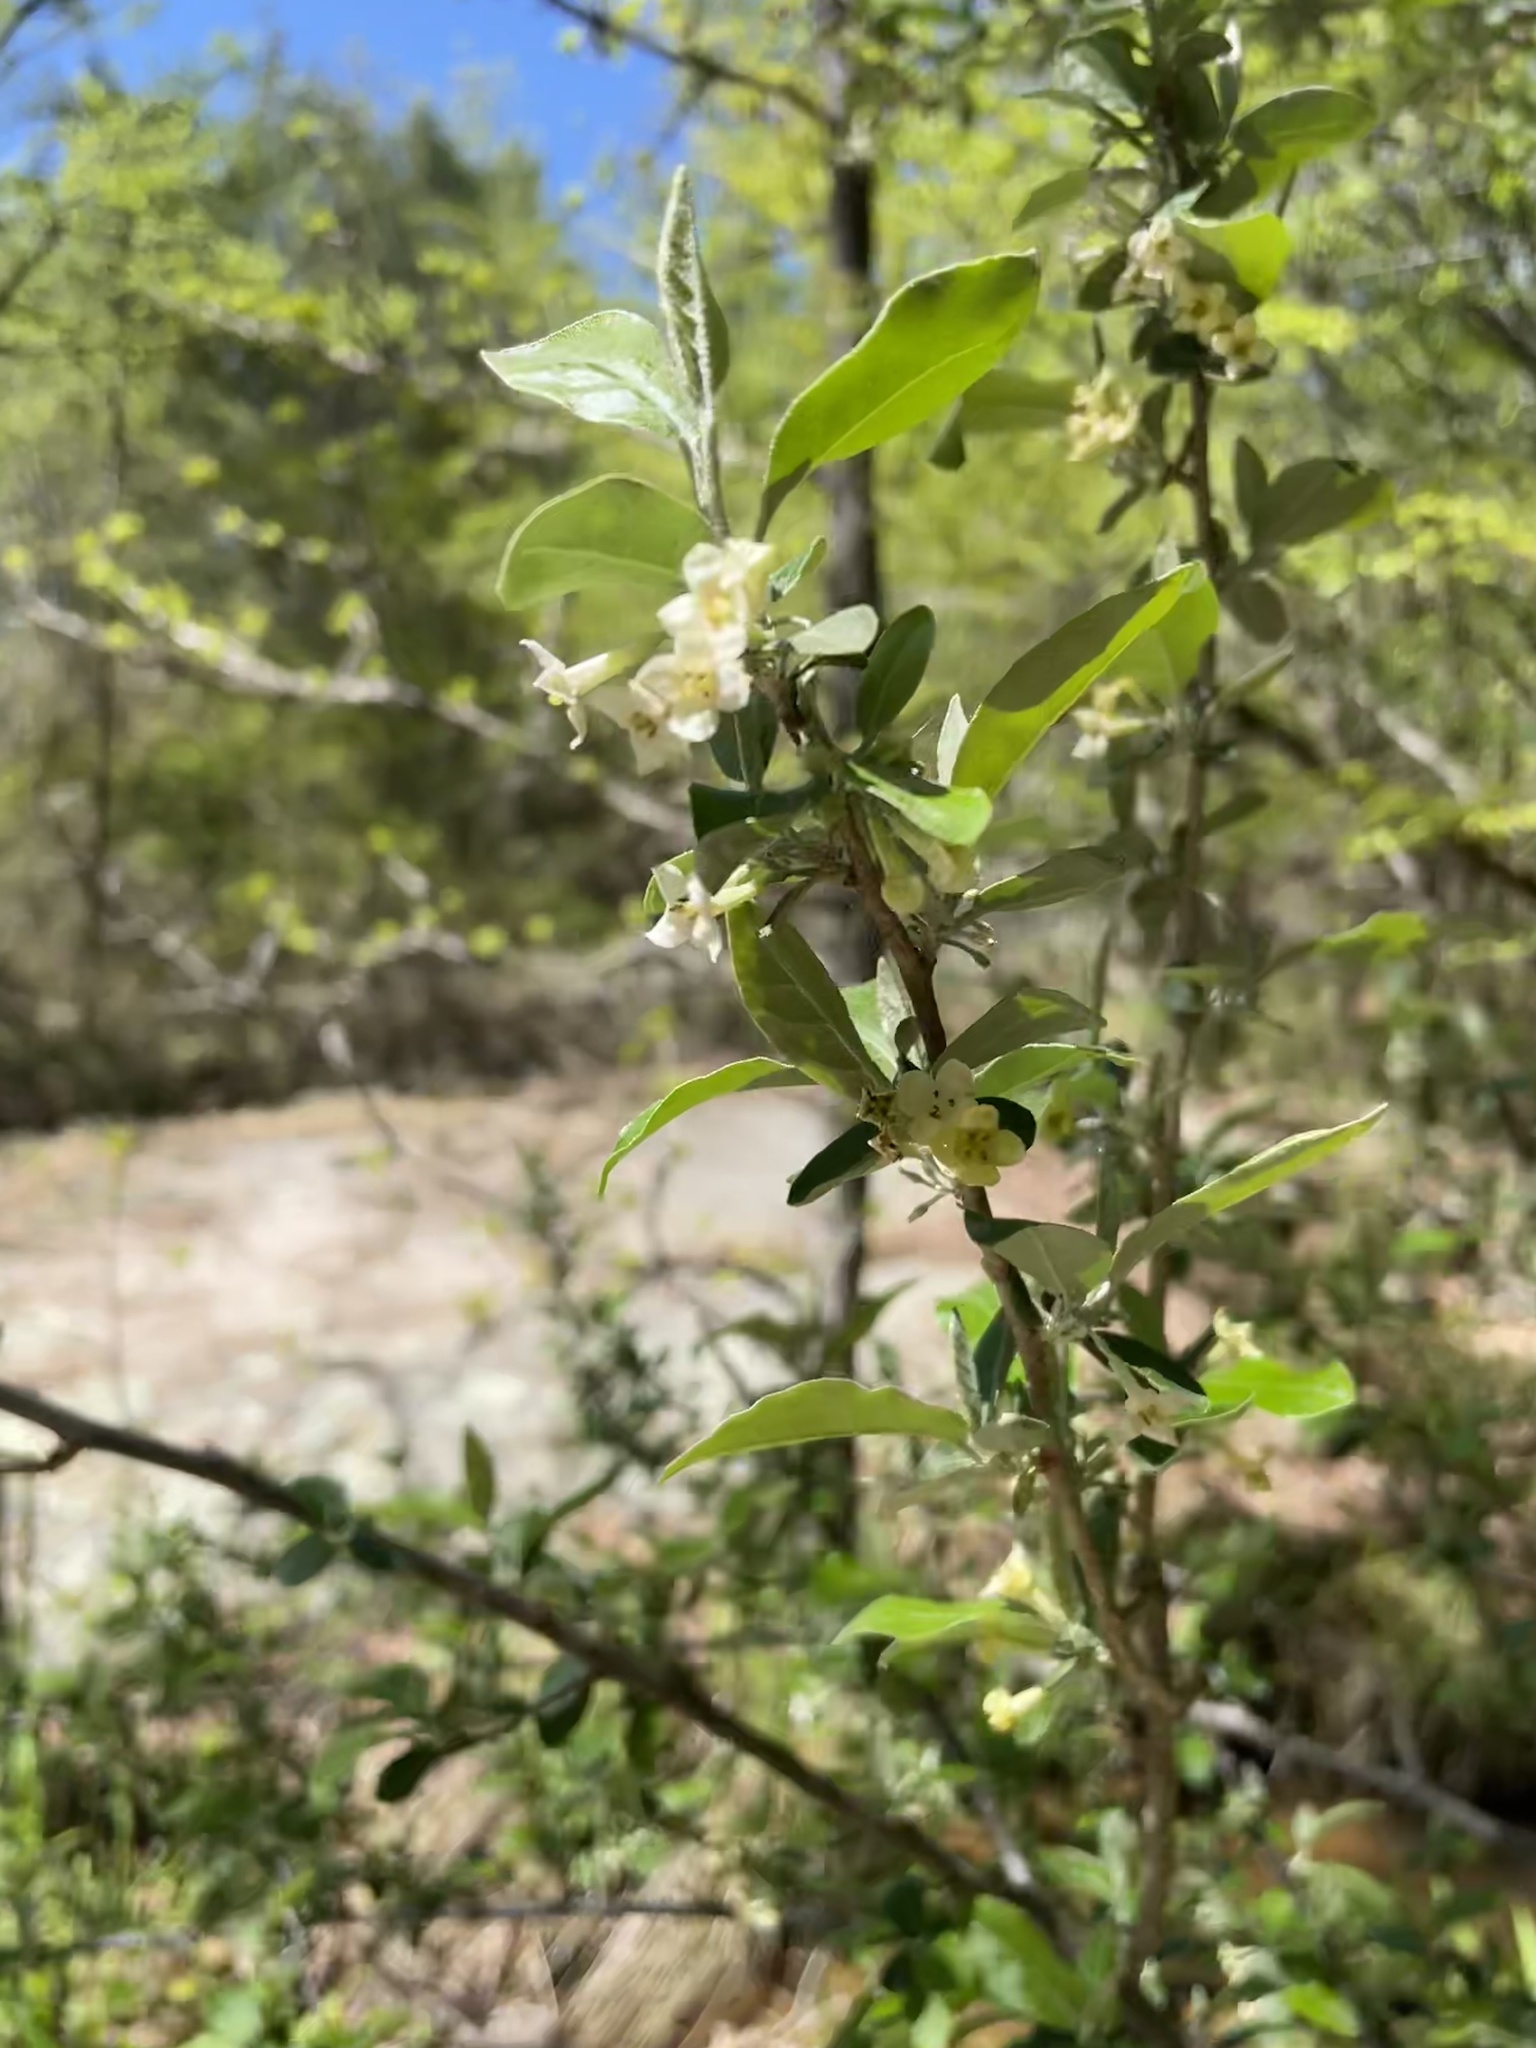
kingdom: Plantae
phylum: Tracheophyta
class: Magnoliopsida
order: Rosales
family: Elaeagnaceae
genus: Elaeagnus
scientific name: Elaeagnus umbellata
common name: Autumn olive
